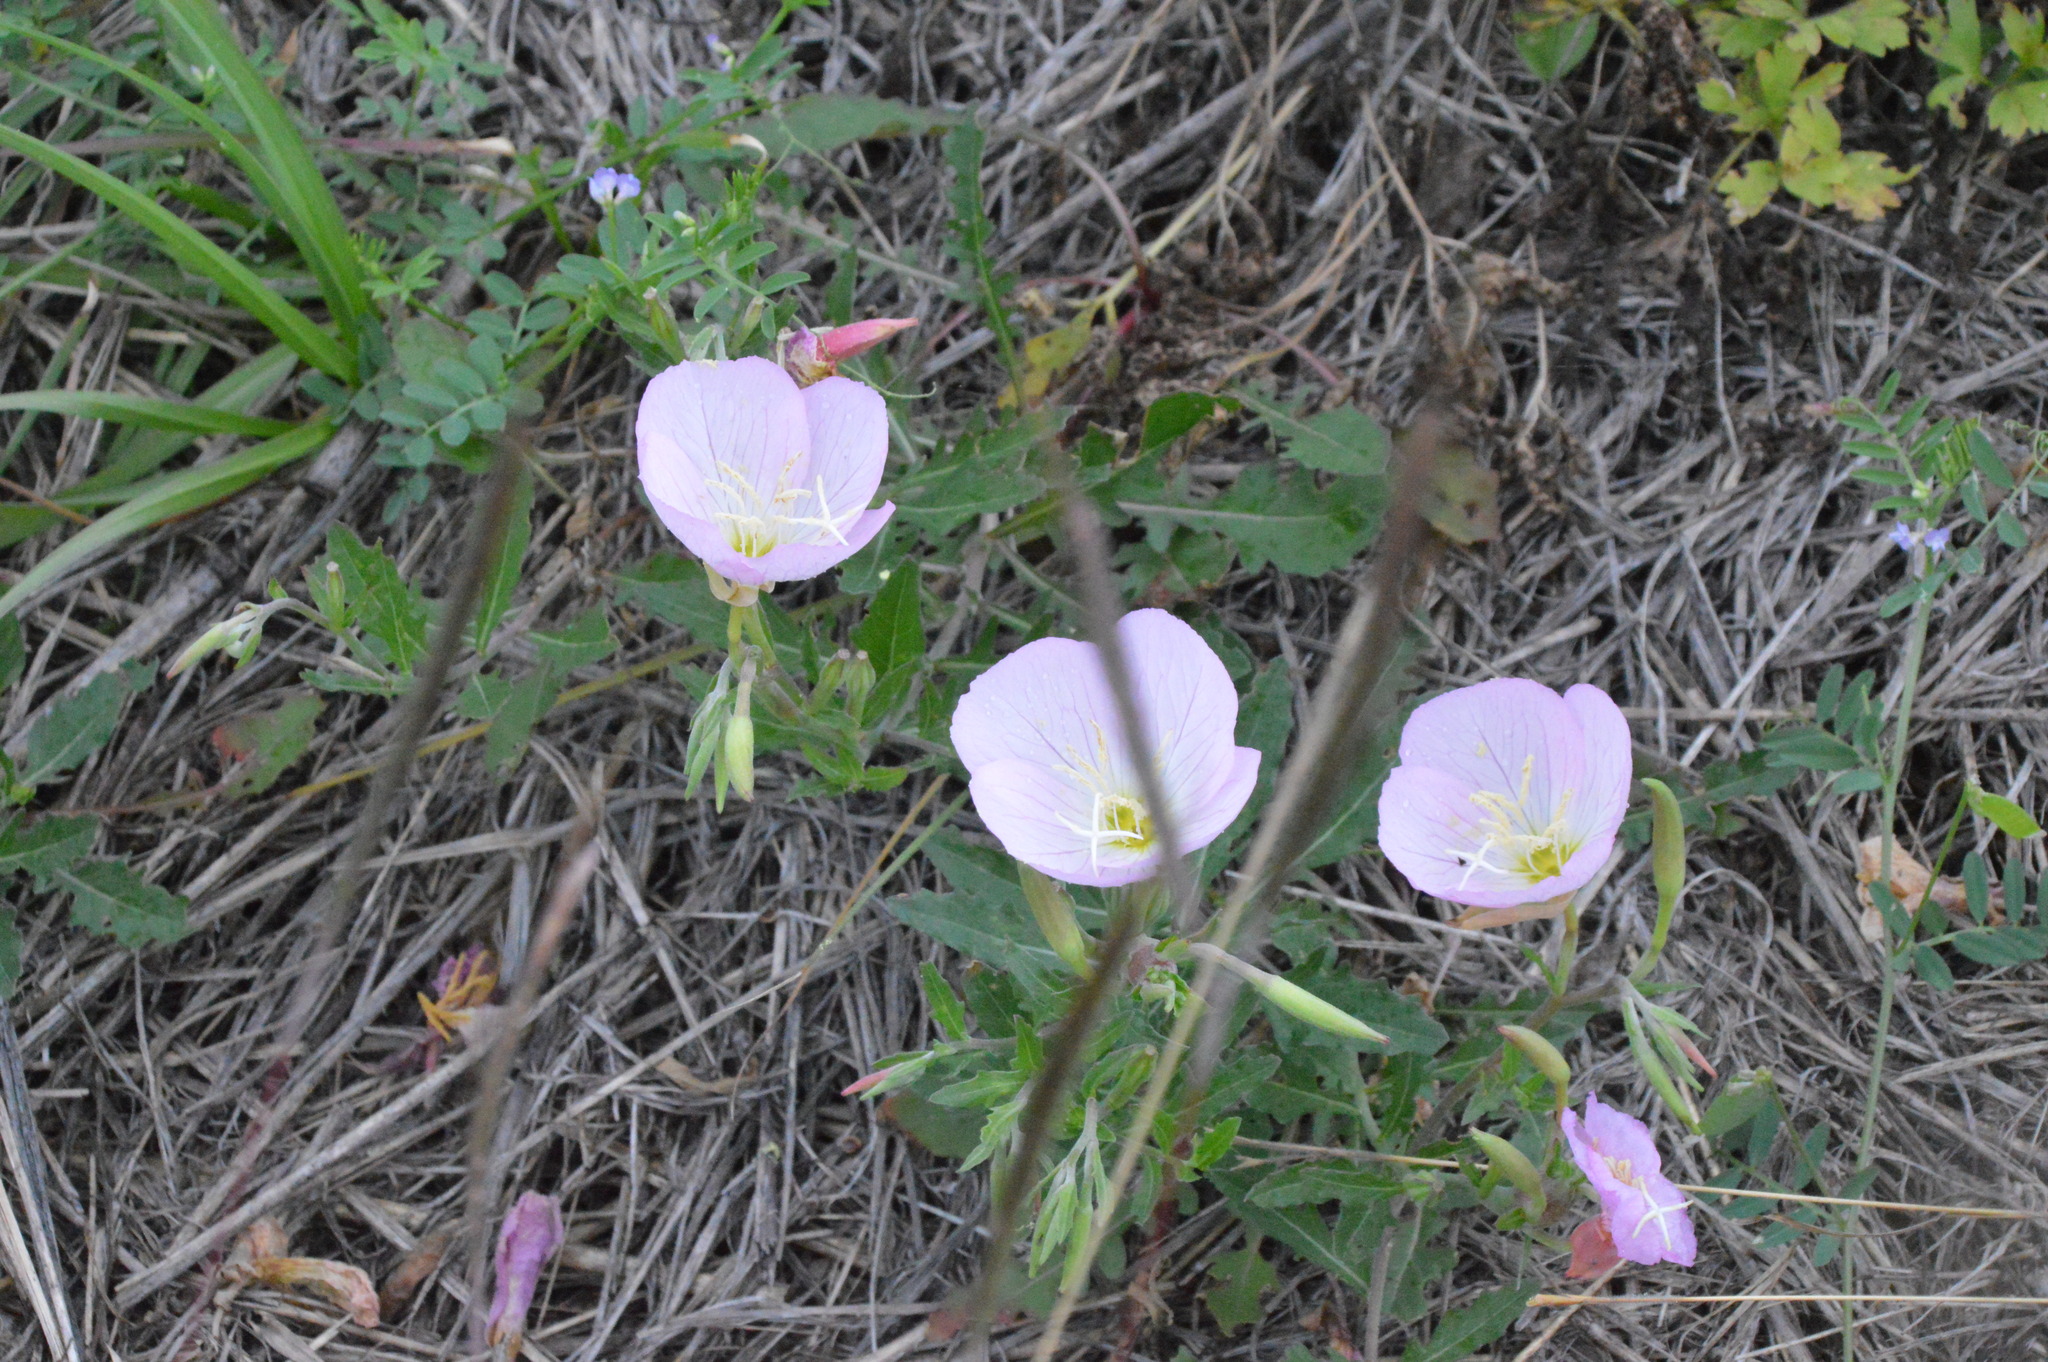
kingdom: Plantae
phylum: Tracheophyta
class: Magnoliopsida
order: Myrtales
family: Onagraceae
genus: Oenothera
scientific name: Oenothera speciosa
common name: White evening-primrose
